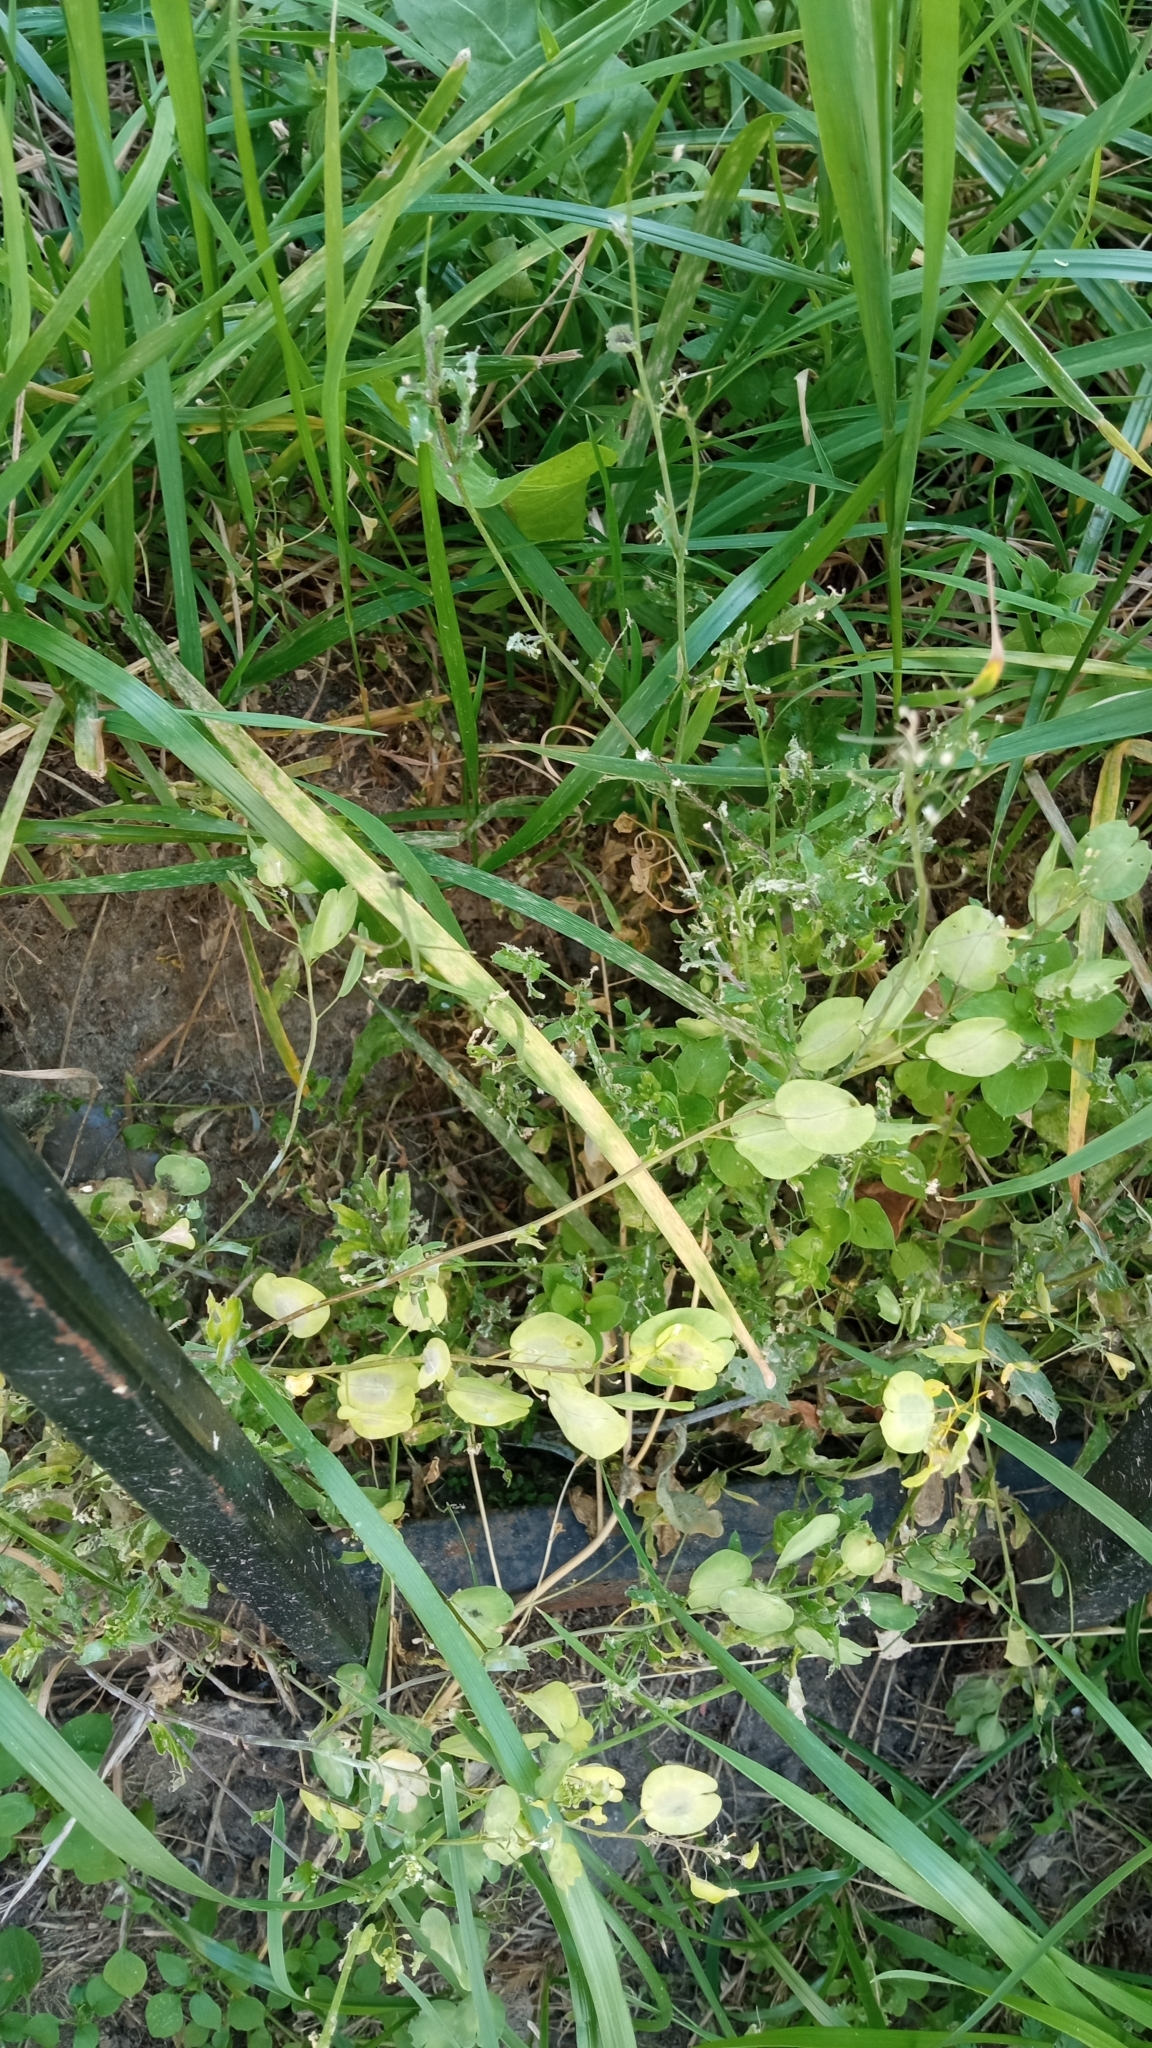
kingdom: Plantae
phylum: Tracheophyta
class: Magnoliopsida
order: Brassicales
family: Brassicaceae
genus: Thlaspi
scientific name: Thlaspi arvense
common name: Field pennycress
